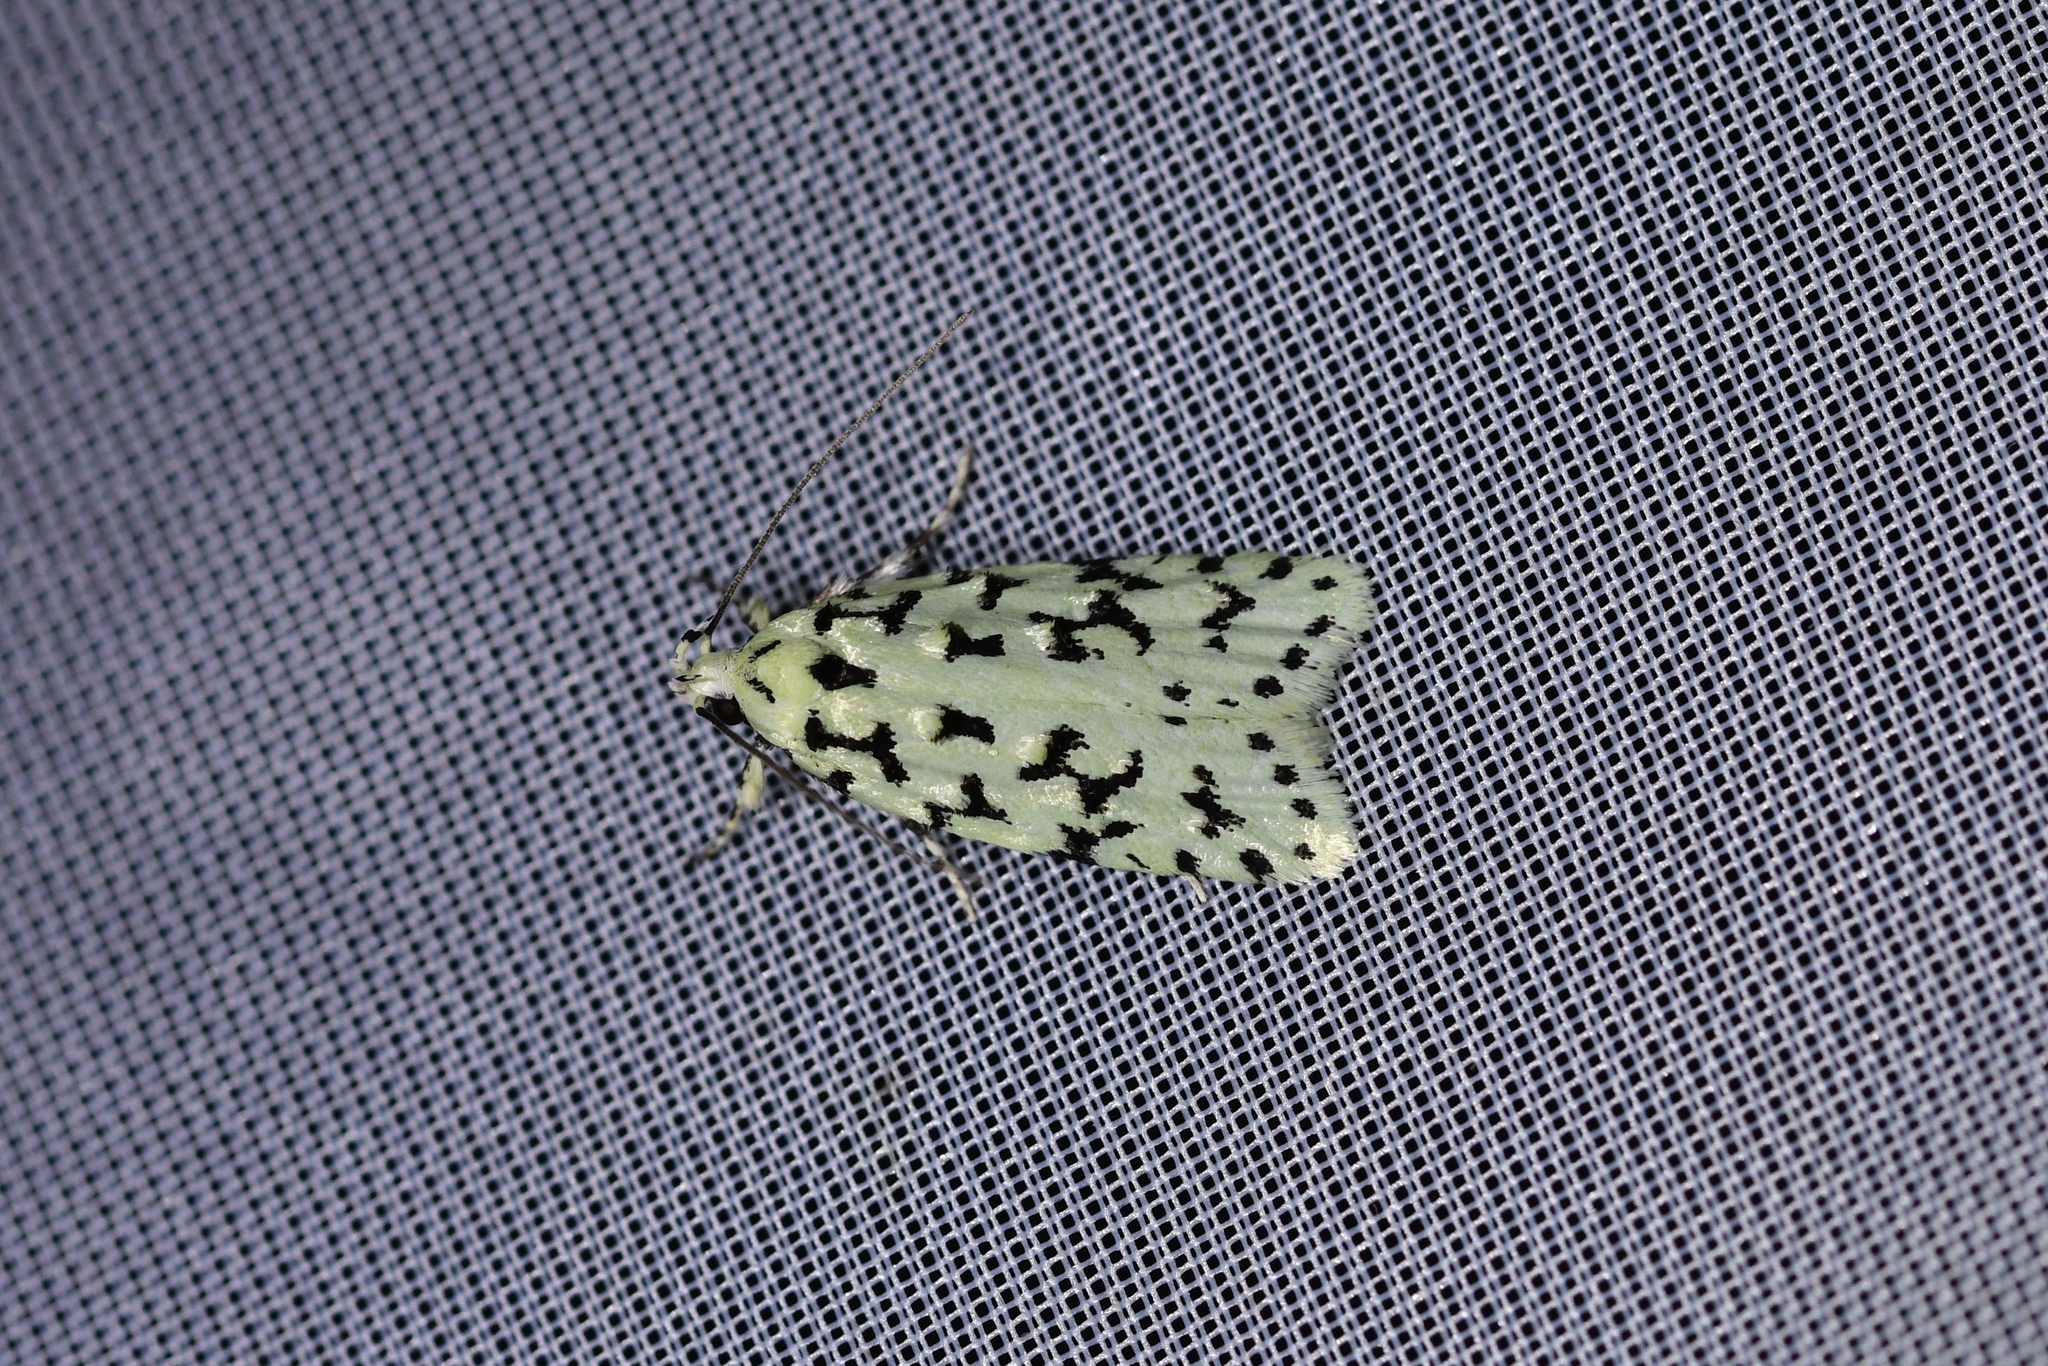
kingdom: Animalia
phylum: Arthropoda
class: Insecta
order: Lepidoptera
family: Oecophoridae
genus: Izatha
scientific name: Izatha huttoni
